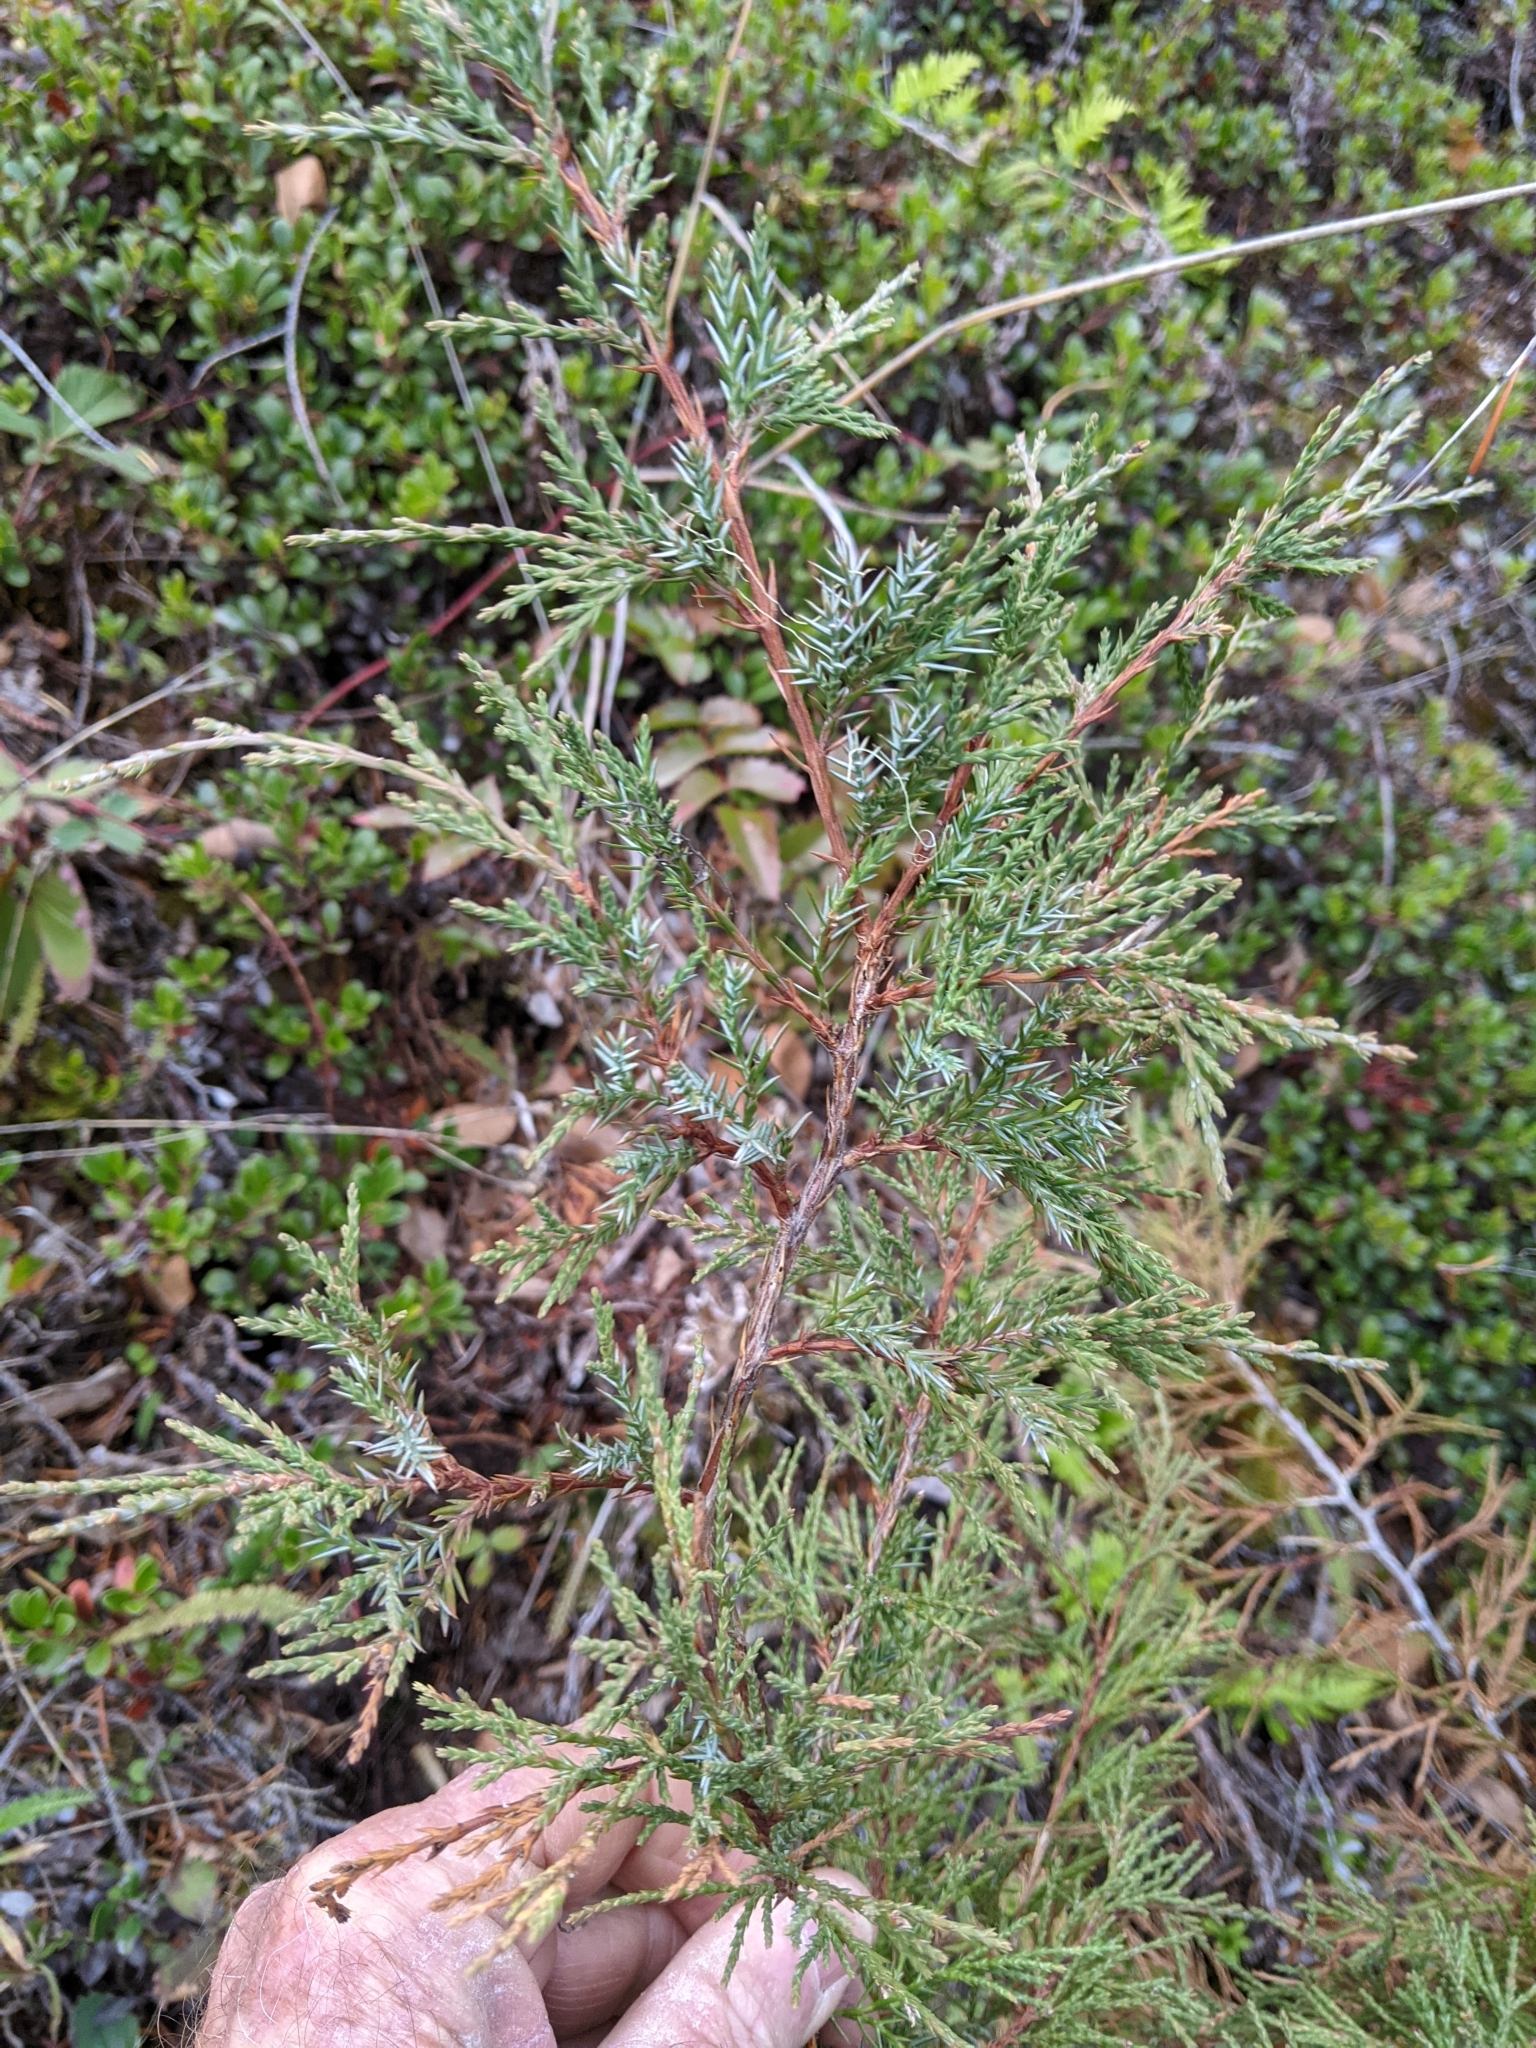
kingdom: Plantae
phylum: Tracheophyta
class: Pinopsida
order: Pinales
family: Cupressaceae
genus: Juniperus
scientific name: Juniperus scopulorum
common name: Rocky mountain juniper
